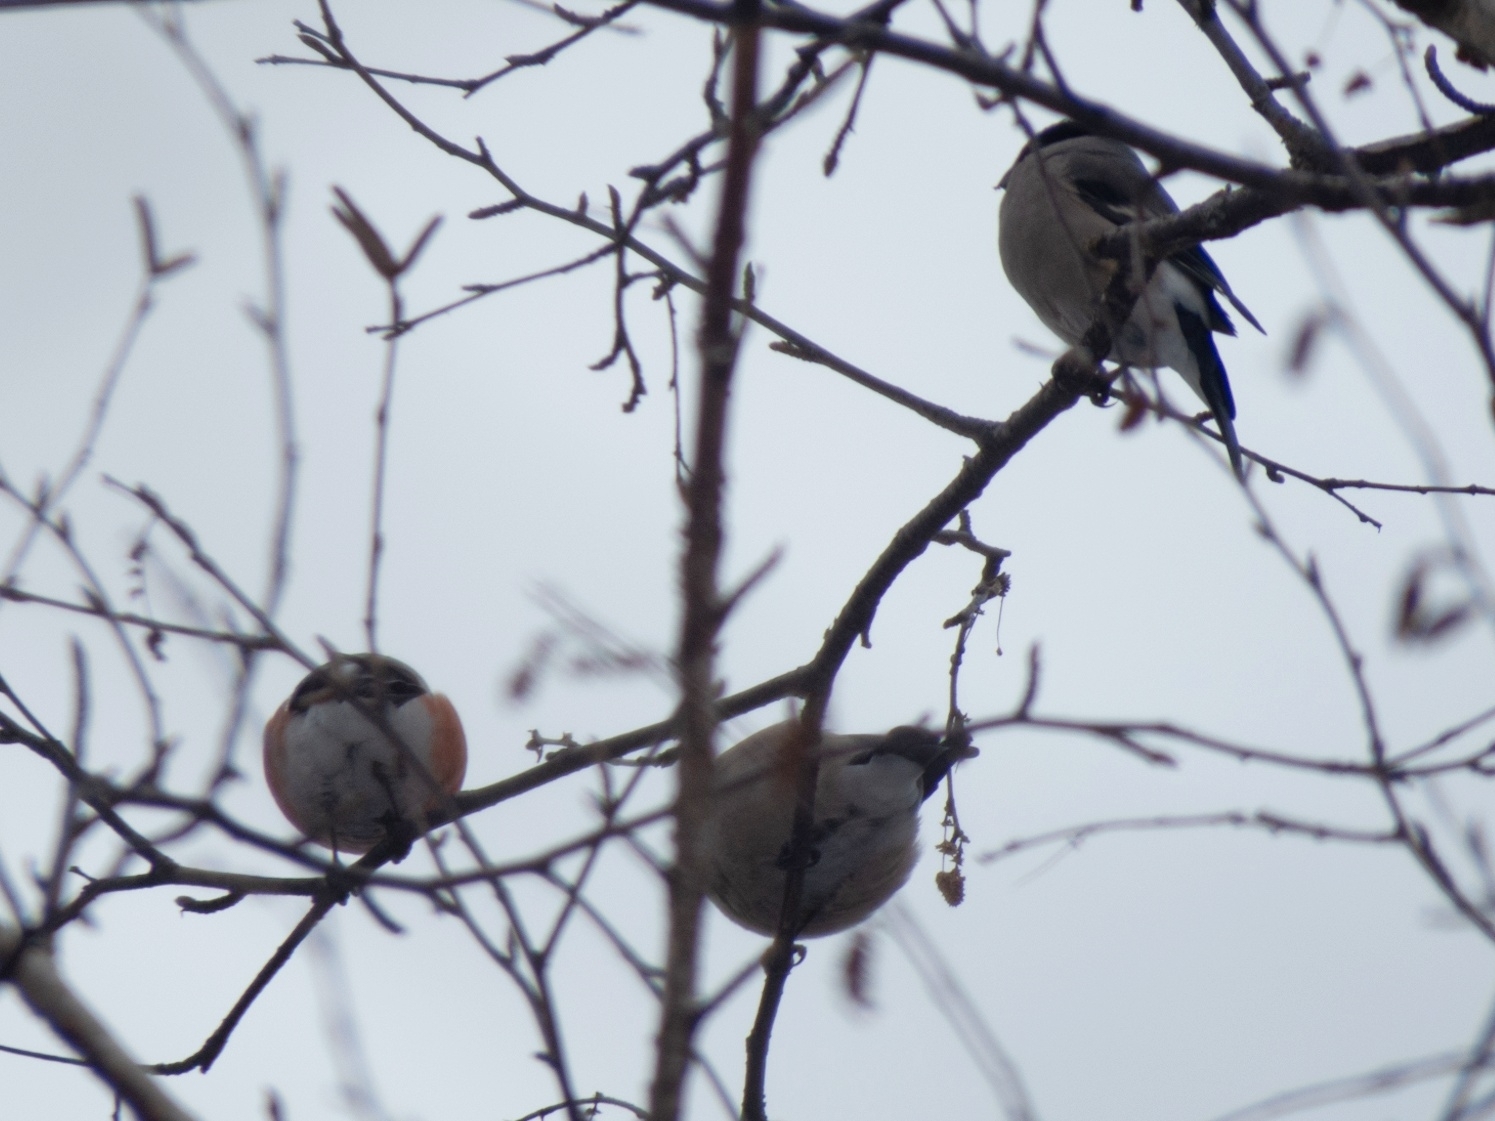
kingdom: Animalia
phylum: Chordata
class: Aves
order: Passeriformes
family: Fringillidae
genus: Pyrrhula
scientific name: Pyrrhula pyrrhula
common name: Eurasian bullfinch
